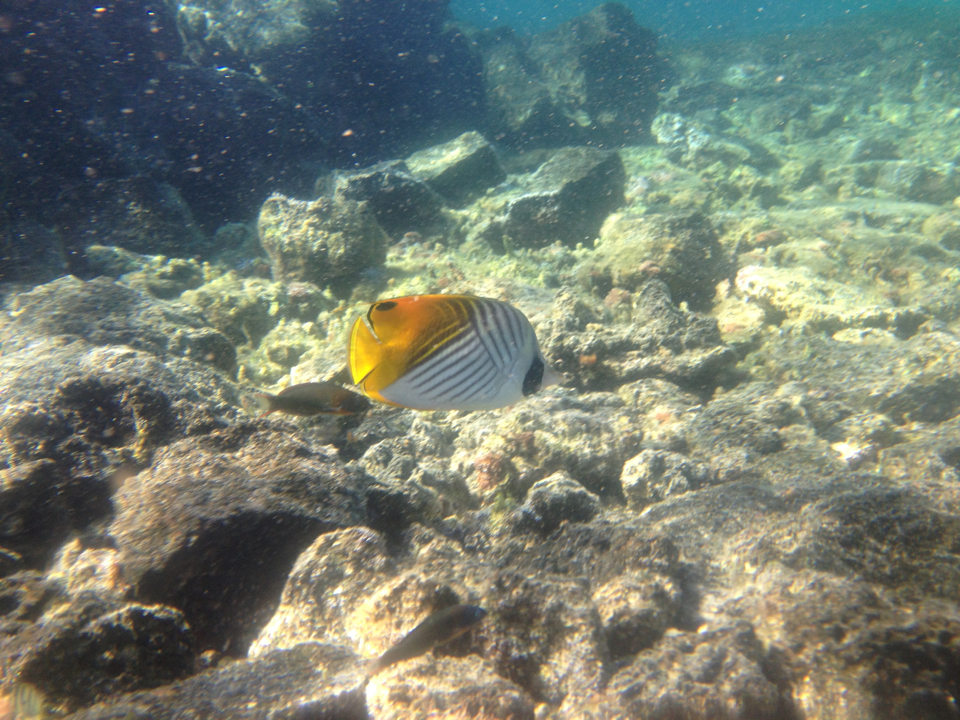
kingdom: Animalia
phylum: Chordata
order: Perciformes
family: Chaetodontidae
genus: Chaetodon
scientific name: Chaetodon auriga
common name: Threadfin butterflyfish
